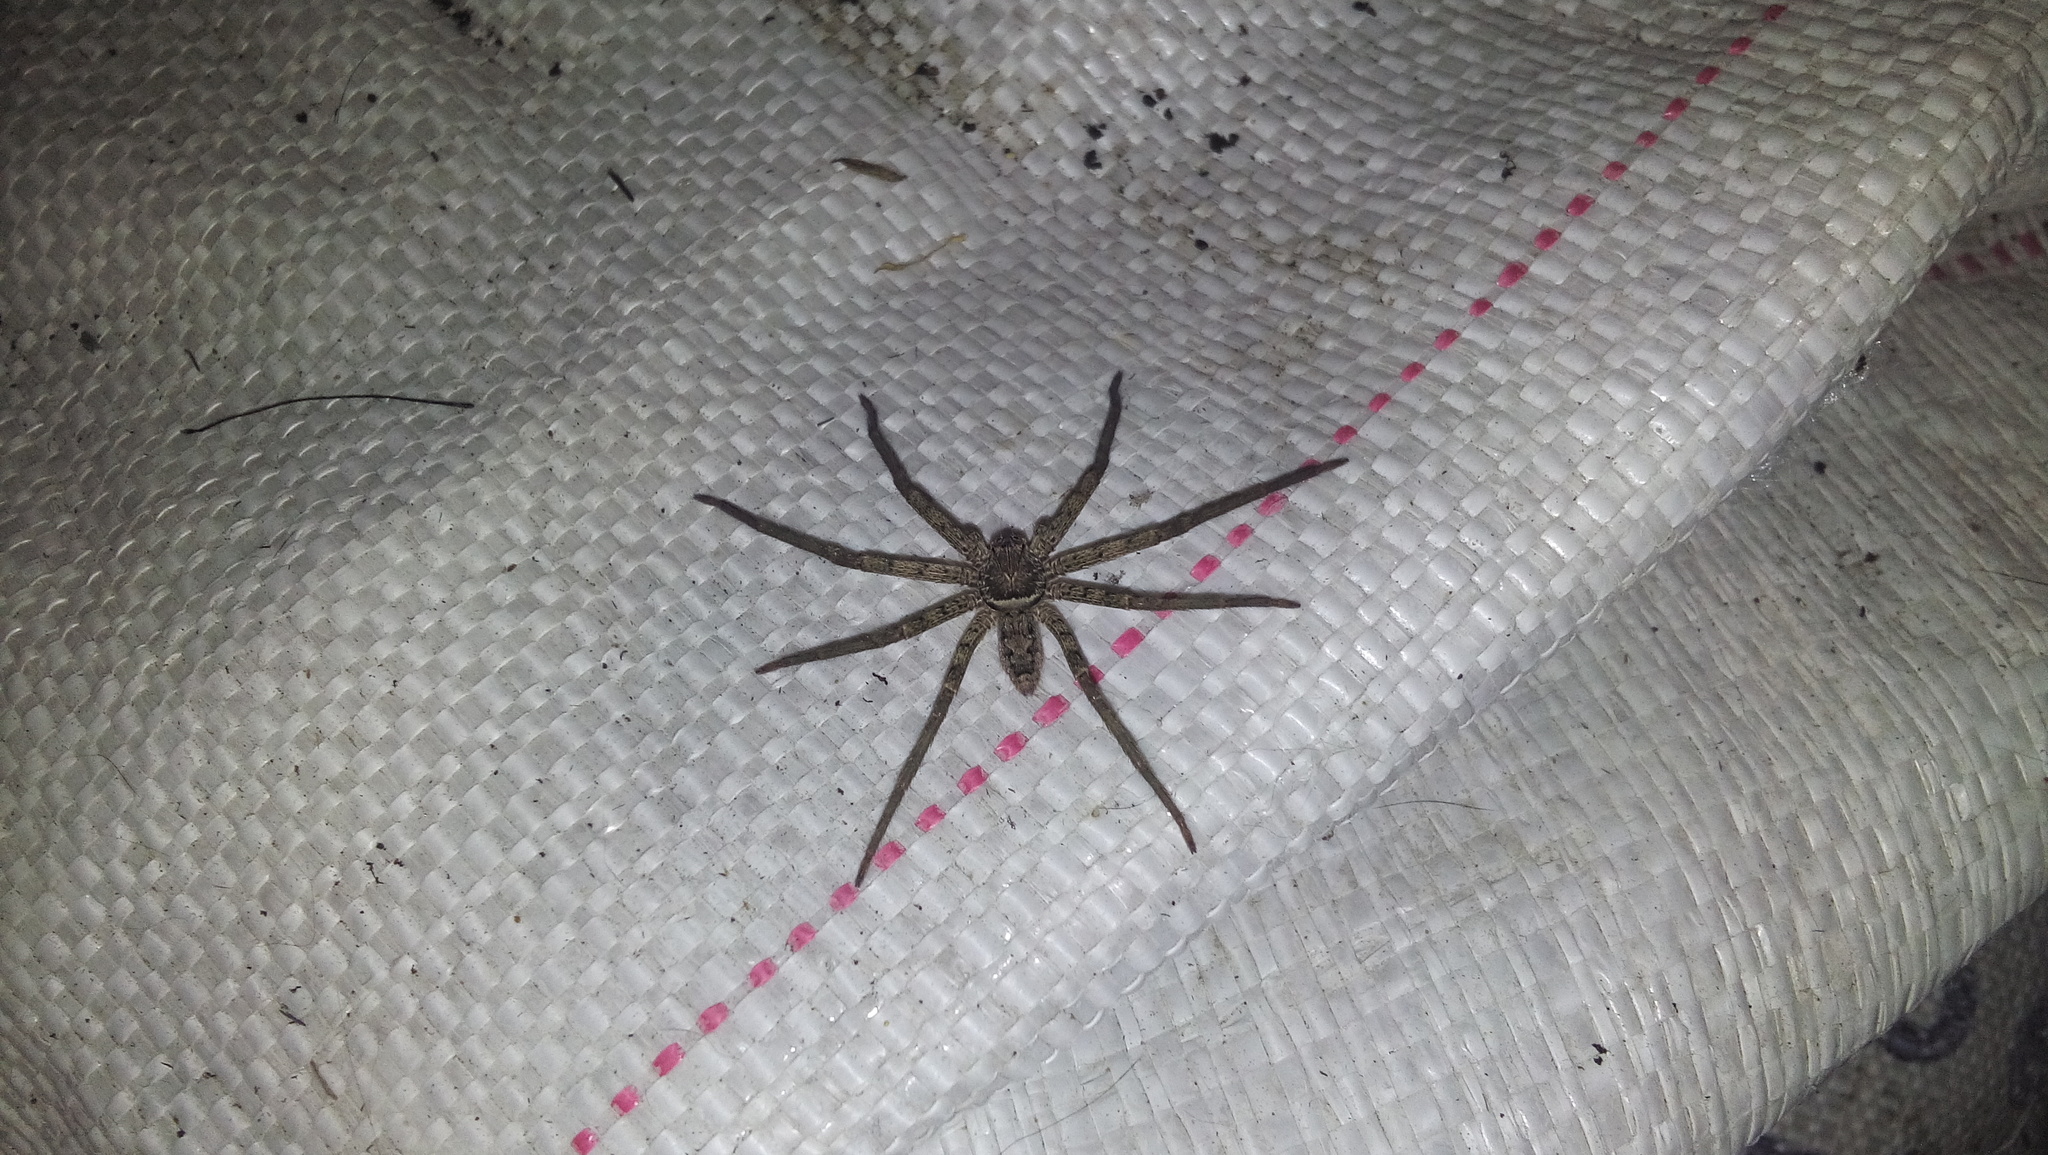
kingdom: Animalia
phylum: Arthropoda
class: Arachnida
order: Araneae
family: Sparassidae
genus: Heteropoda
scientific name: Heteropoda venatoria
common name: Huntsman spider
